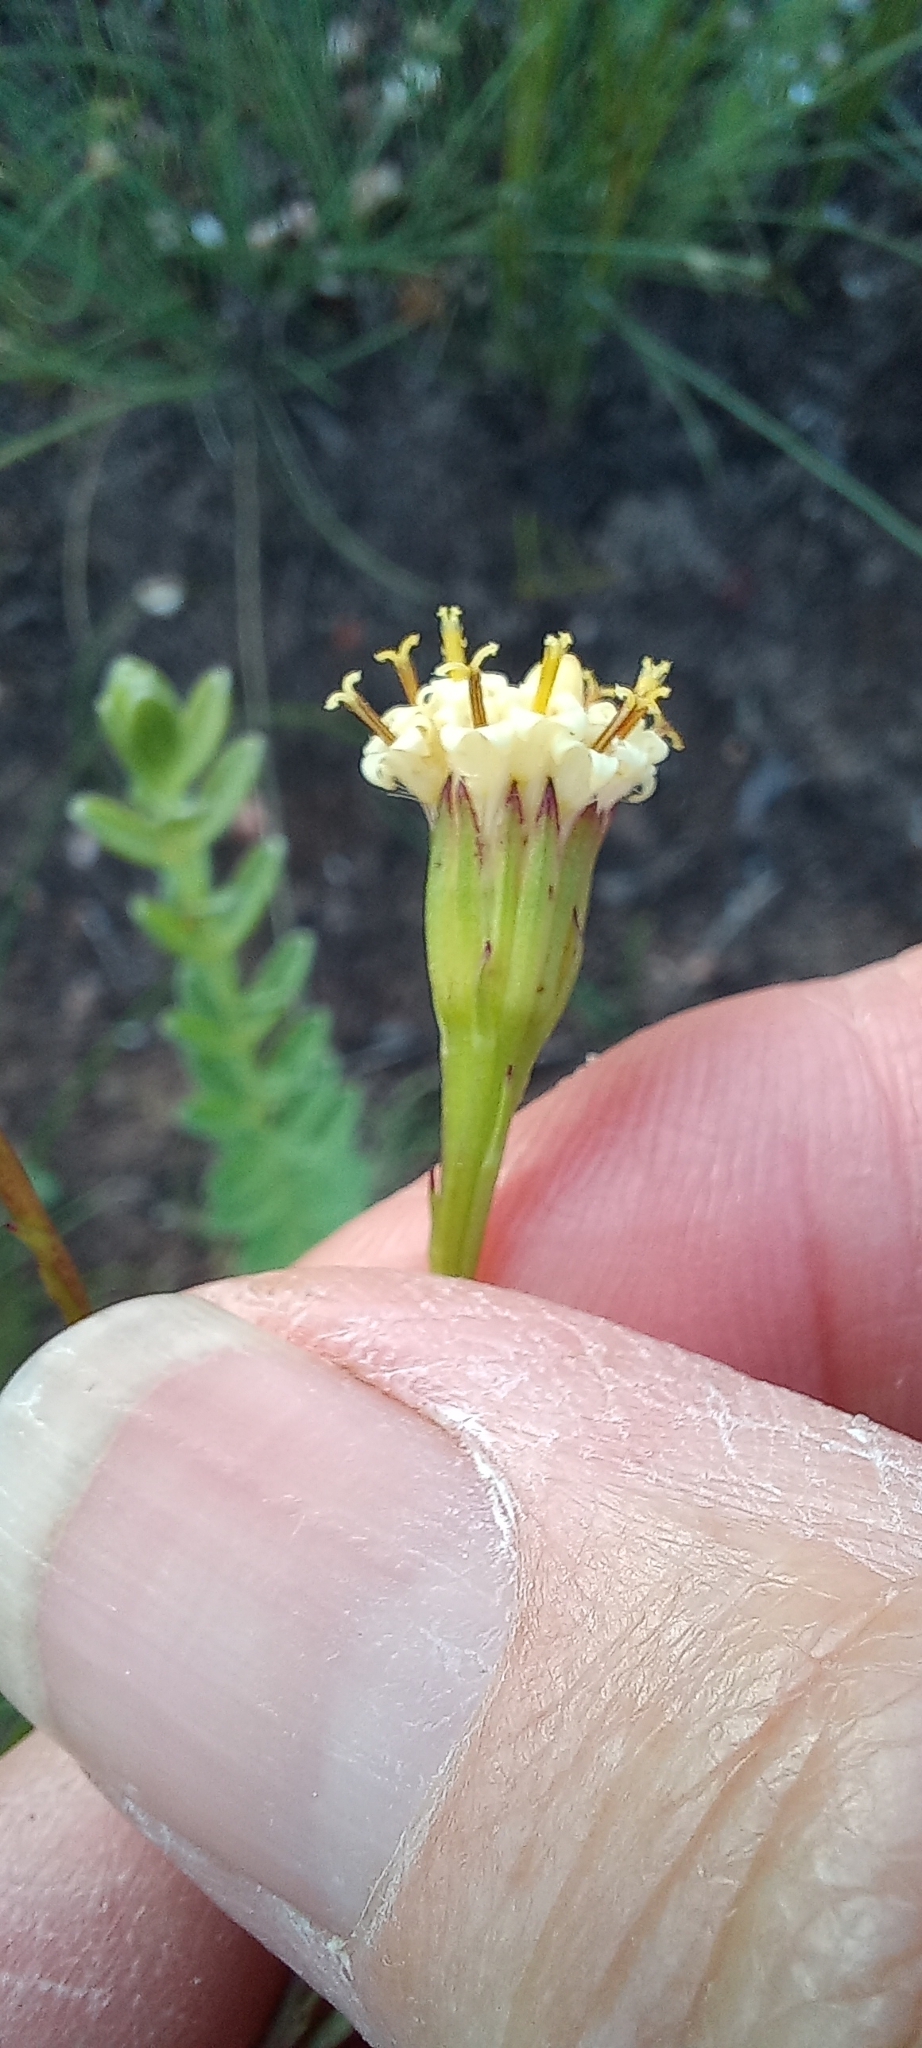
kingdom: Plantae
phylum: Tracheophyta
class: Magnoliopsida
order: Asterales
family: Asteraceae
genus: Senecio
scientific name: Senecio triqueter
